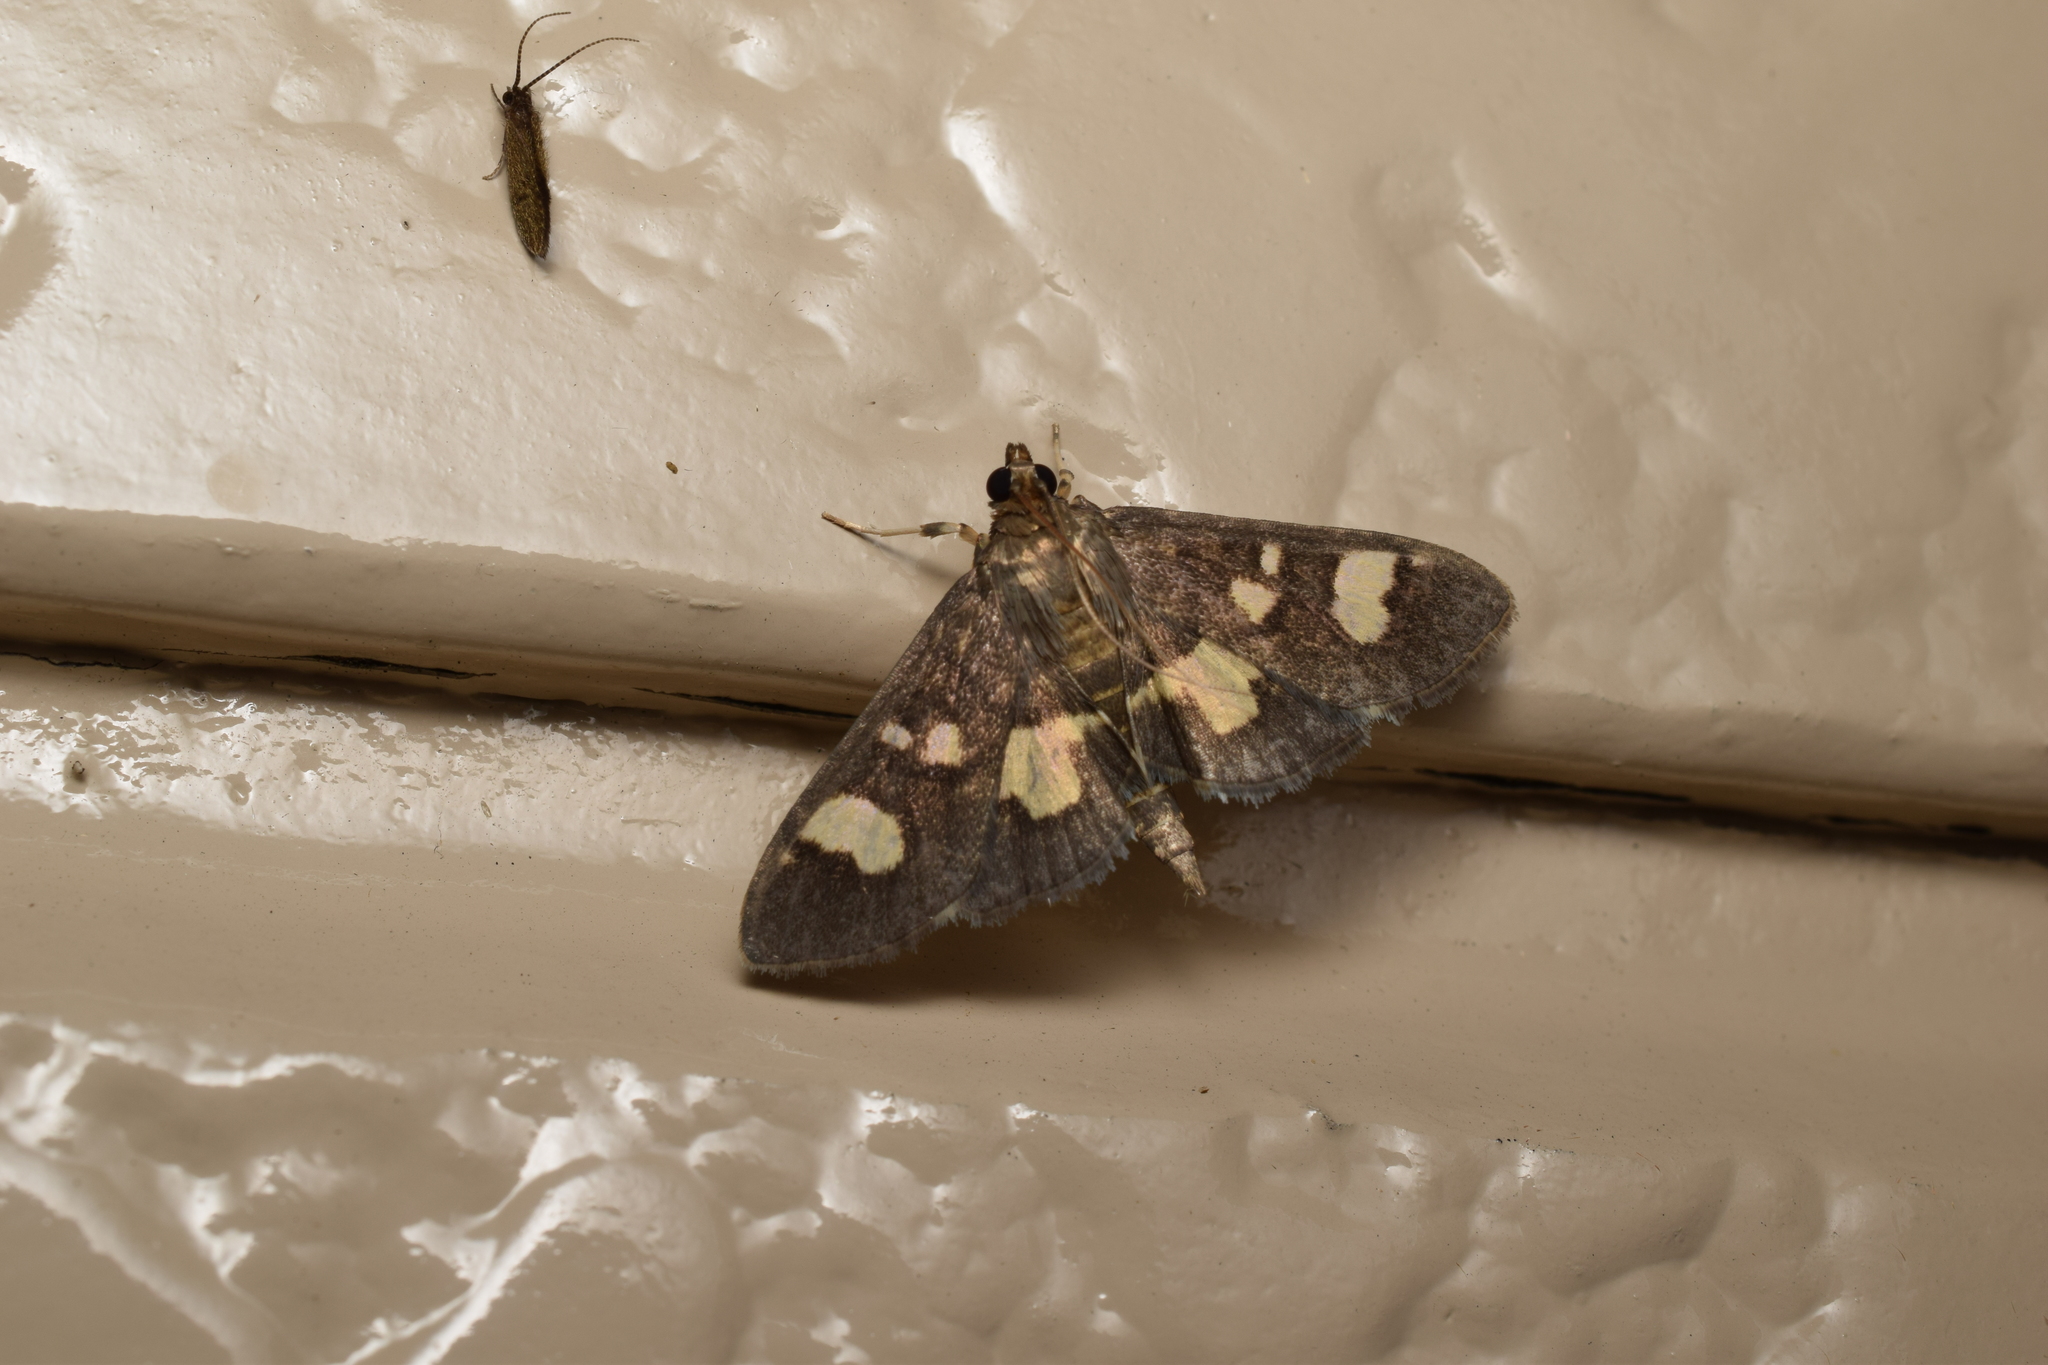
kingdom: Animalia
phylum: Arthropoda
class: Insecta
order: Lepidoptera
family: Crambidae
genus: Uresiphita
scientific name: Uresiphita tricolor
